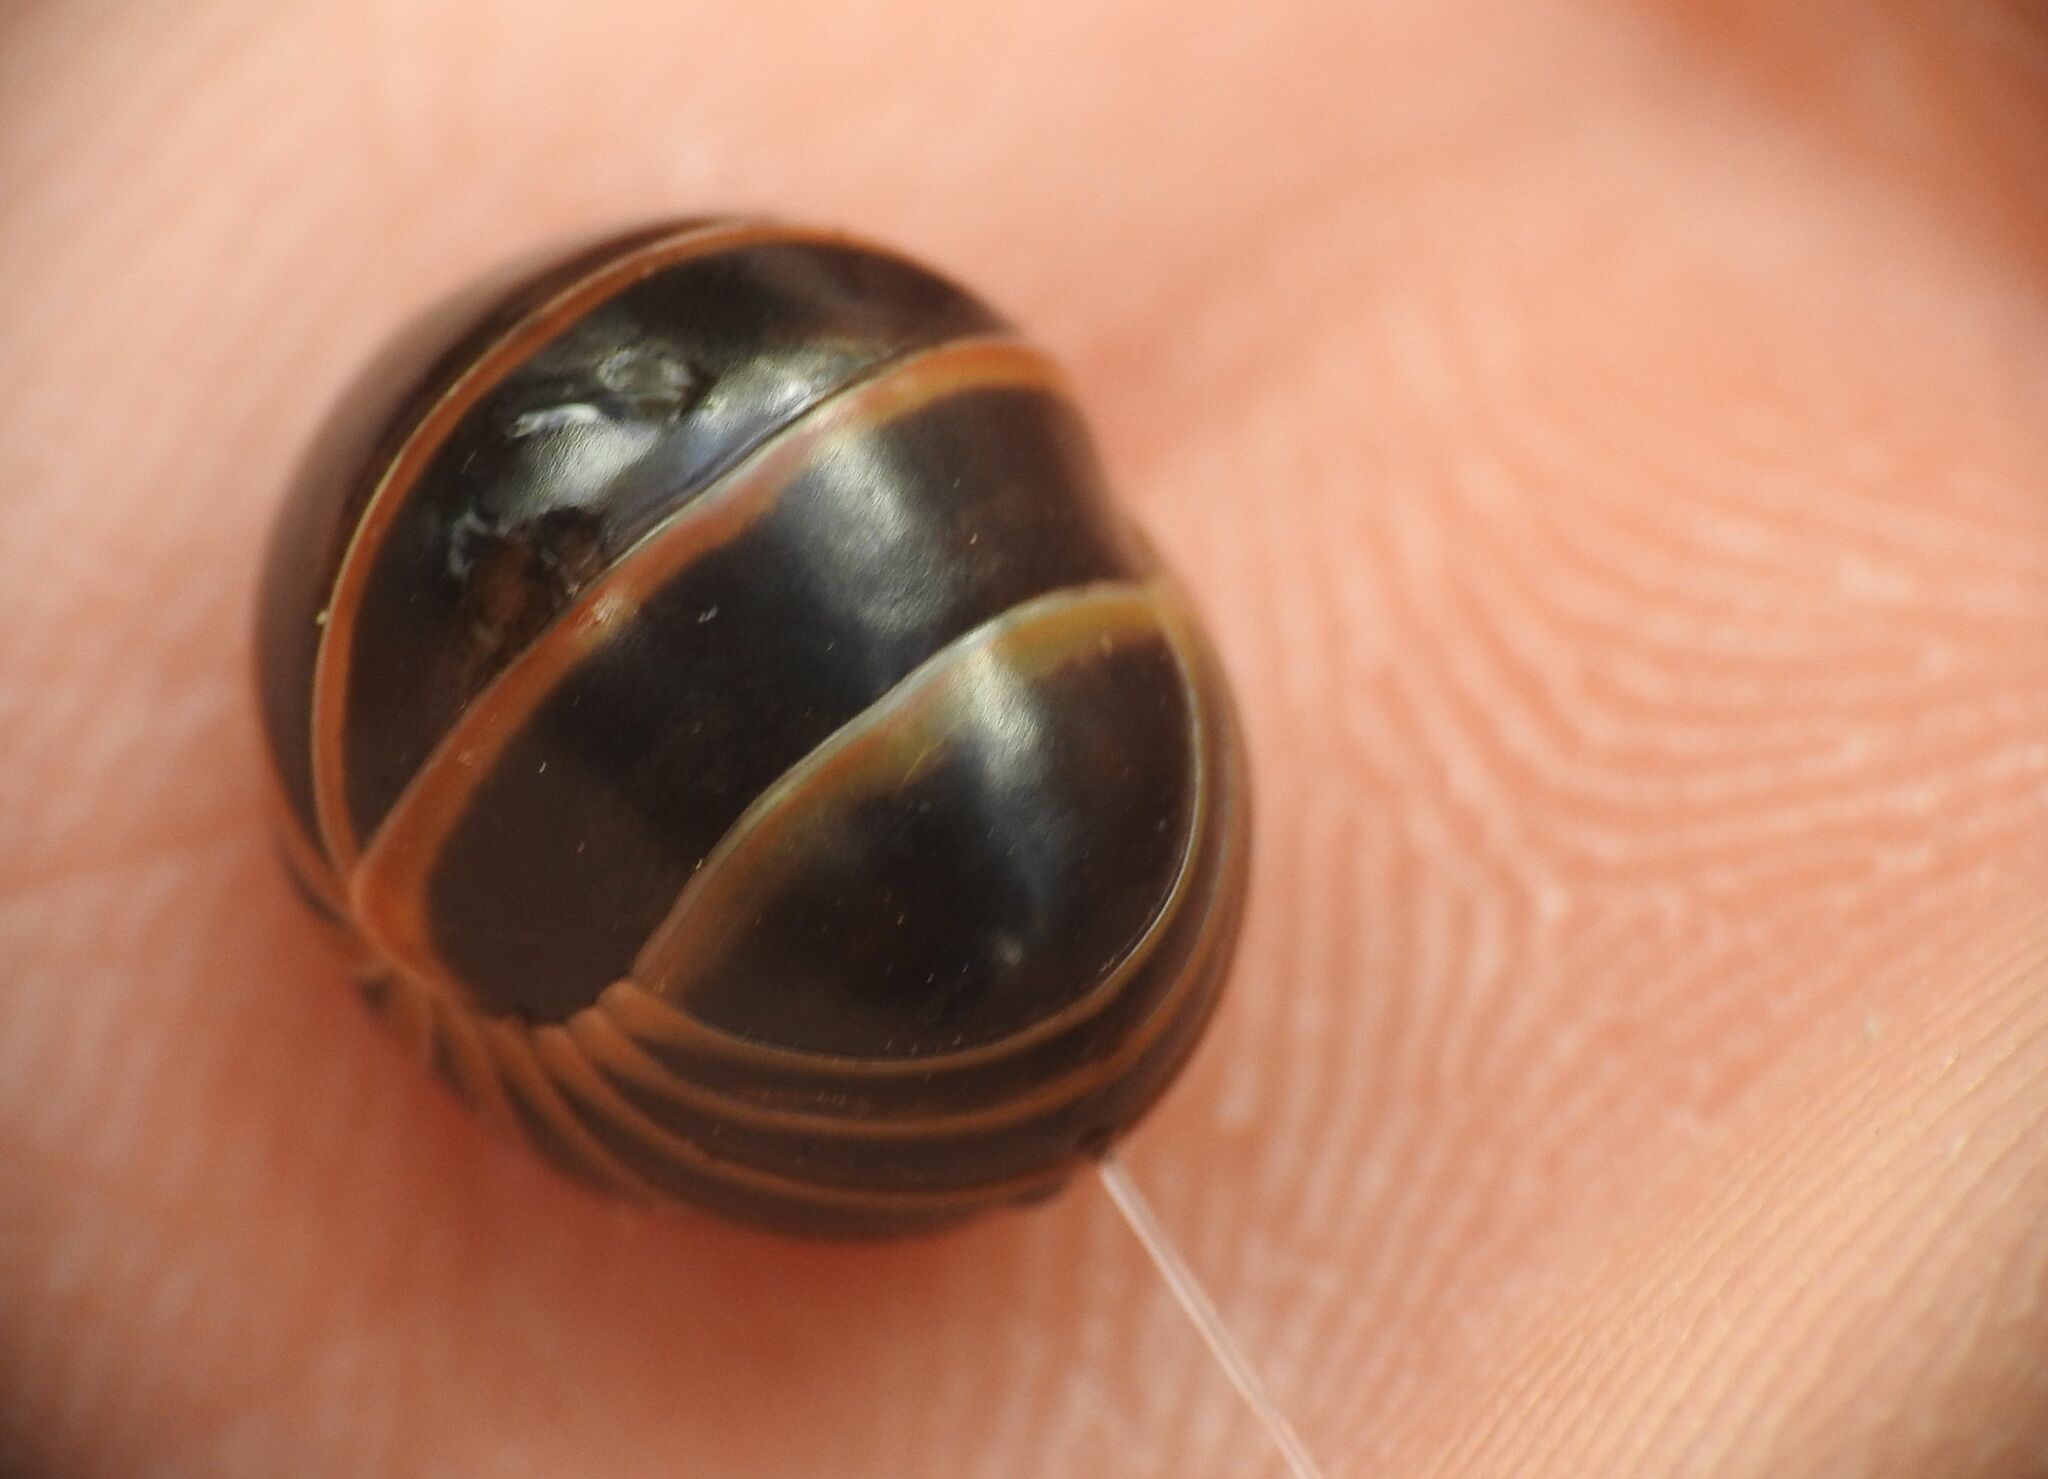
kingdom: Animalia
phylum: Arthropoda
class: Diplopoda
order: Glomerida
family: Glomeridae
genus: Glomeris
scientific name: Glomeris marginata
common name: Bordered pill millipede
